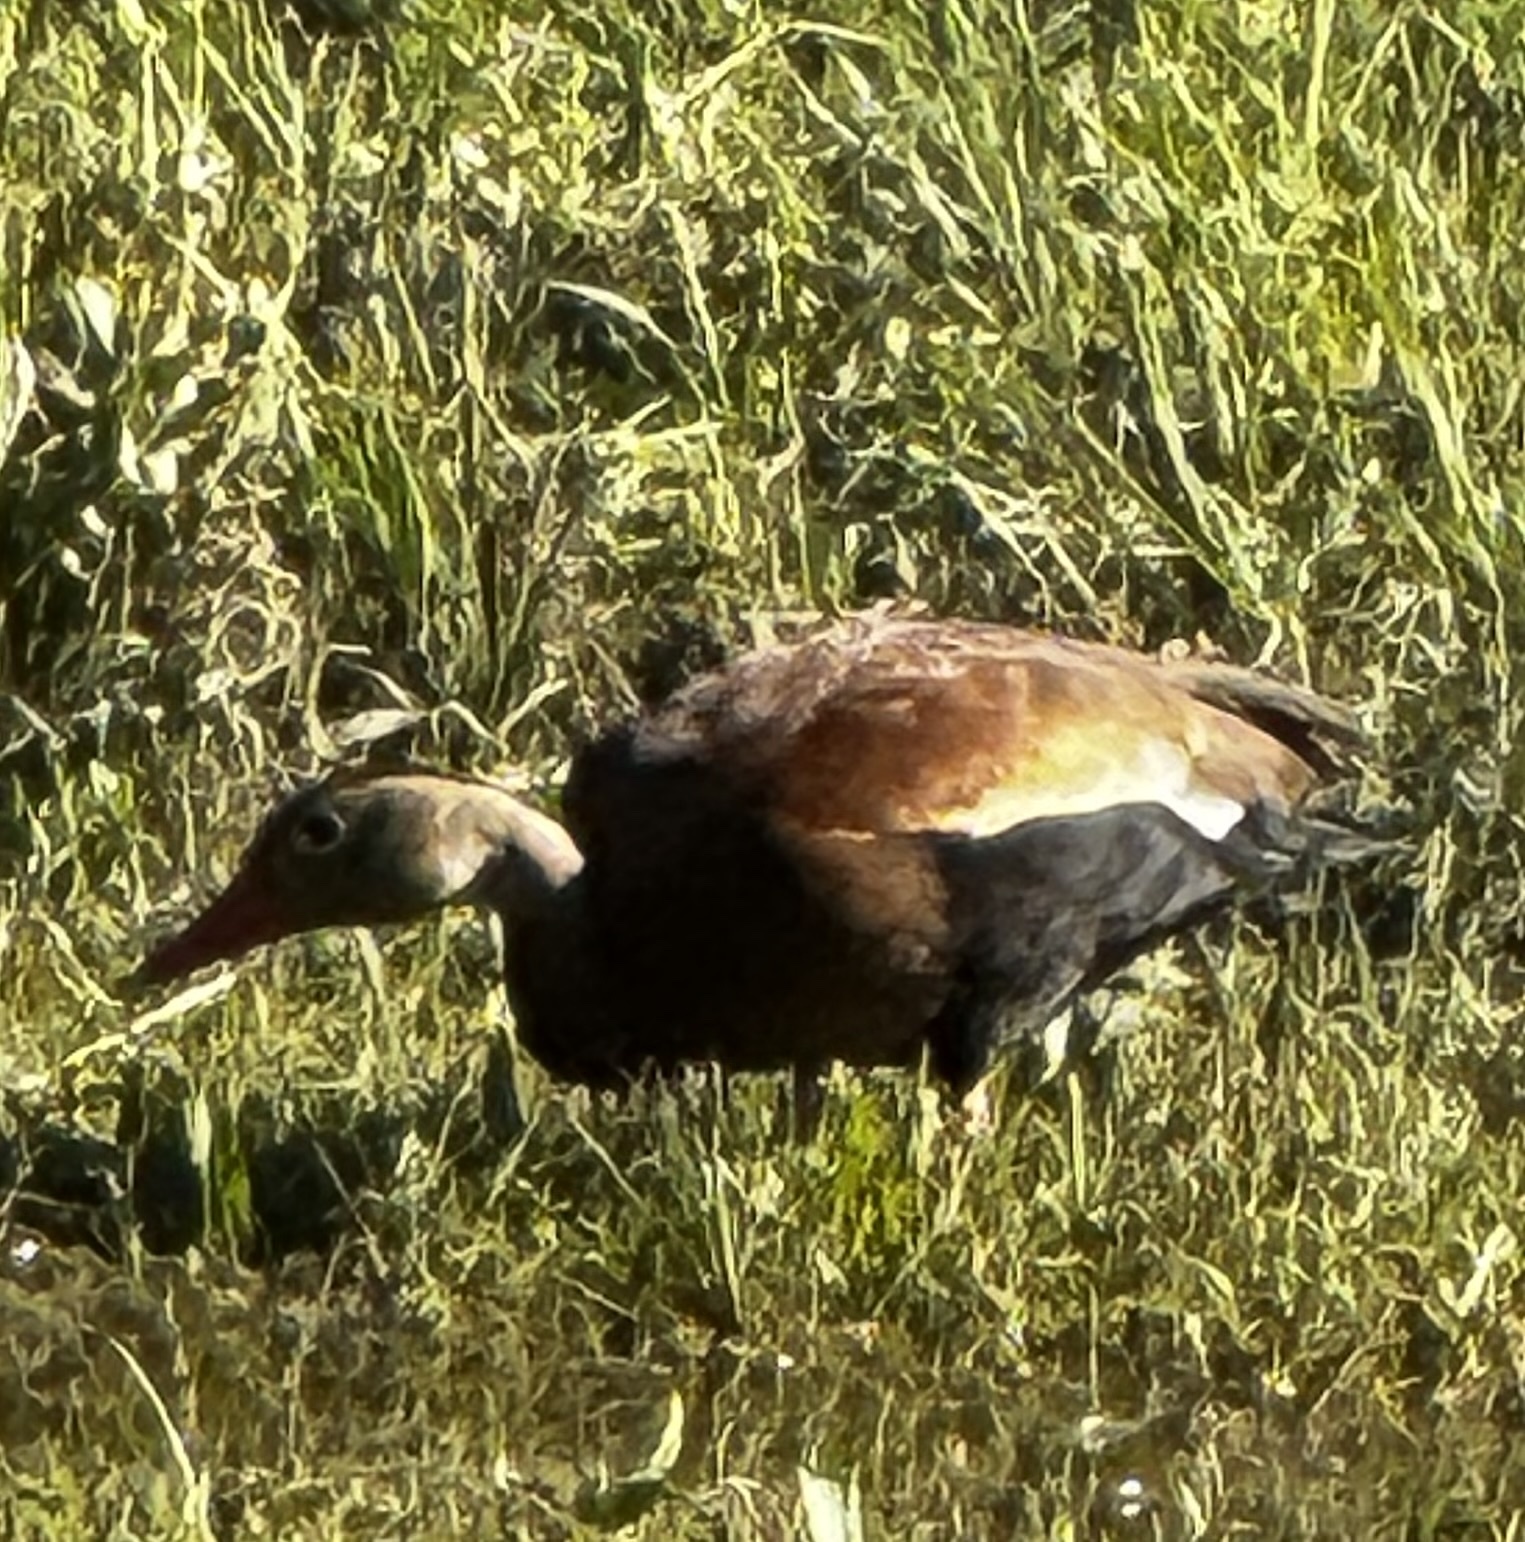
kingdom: Animalia
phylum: Chordata
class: Aves
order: Anseriformes
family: Anatidae
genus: Dendrocygna
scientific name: Dendrocygna autumnalis
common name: Black-bellied whistling duck
